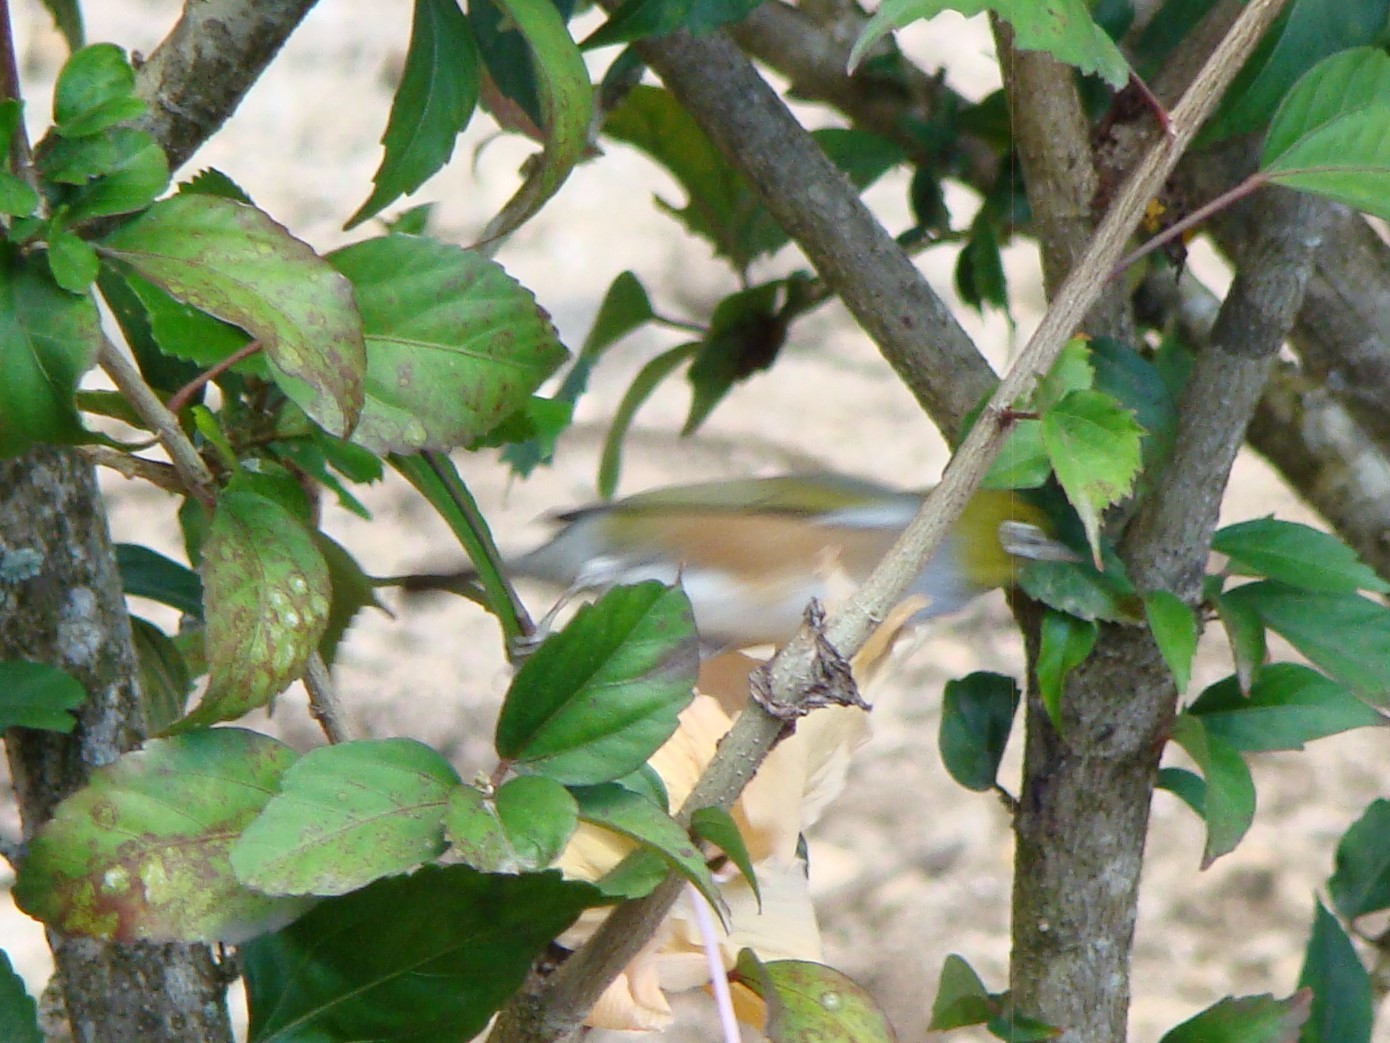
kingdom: Animalia
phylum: Chordata
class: Aves
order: Passeriformes
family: Zosteropidae
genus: Zosterops
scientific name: Zosterops lateralis
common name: Silvereye
